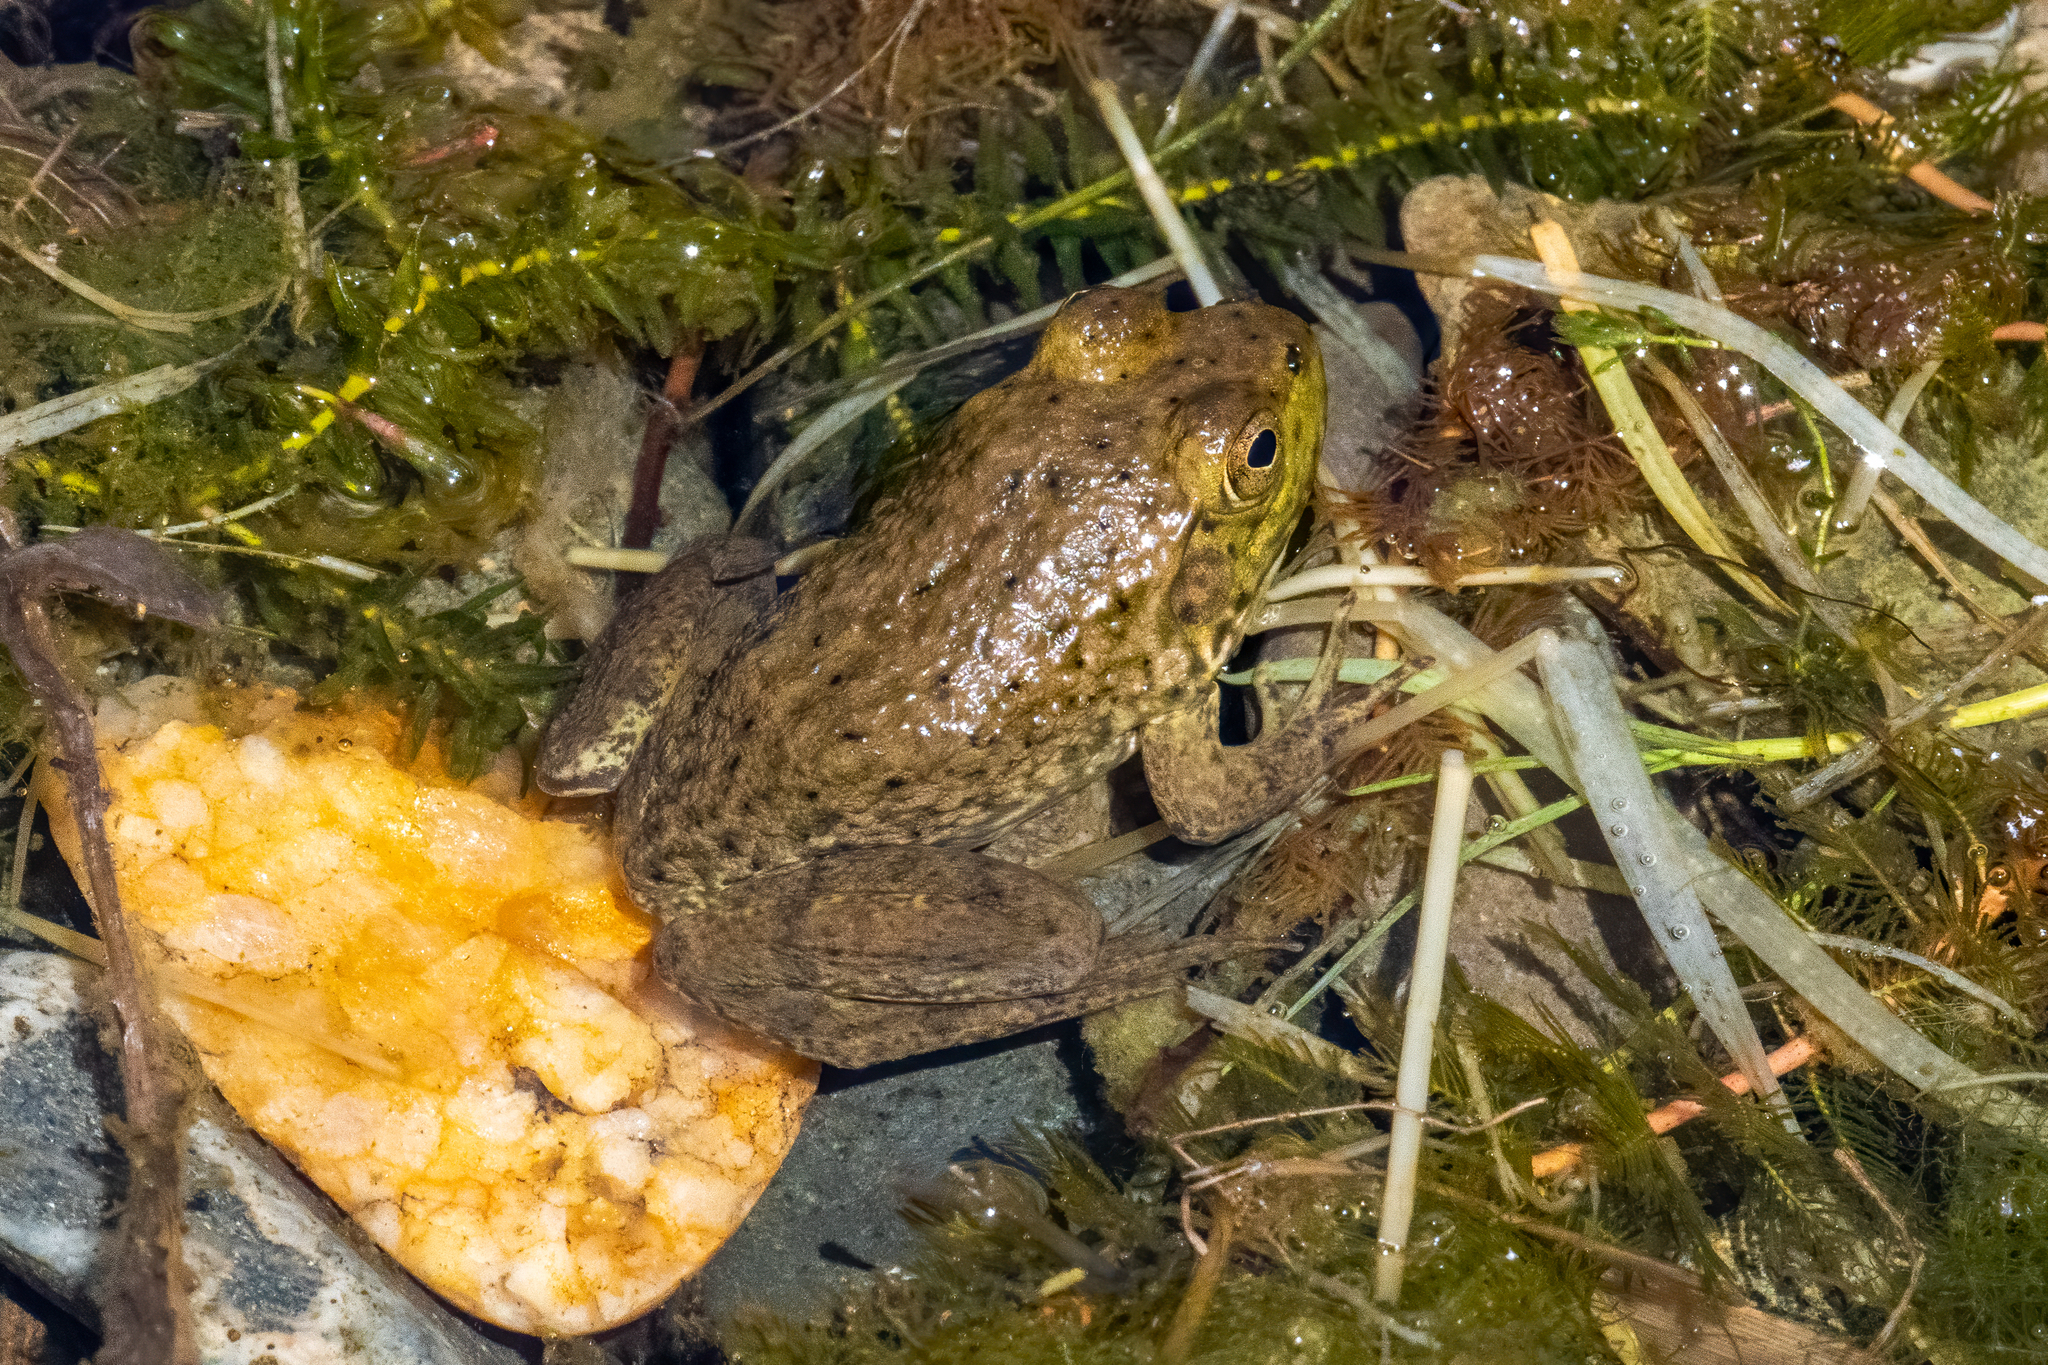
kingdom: Animalia
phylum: Chordata
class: Amphibia
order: Anura
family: Ranidae
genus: Lithobates
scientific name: Lithobates catesbeianus
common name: American bullfrog
